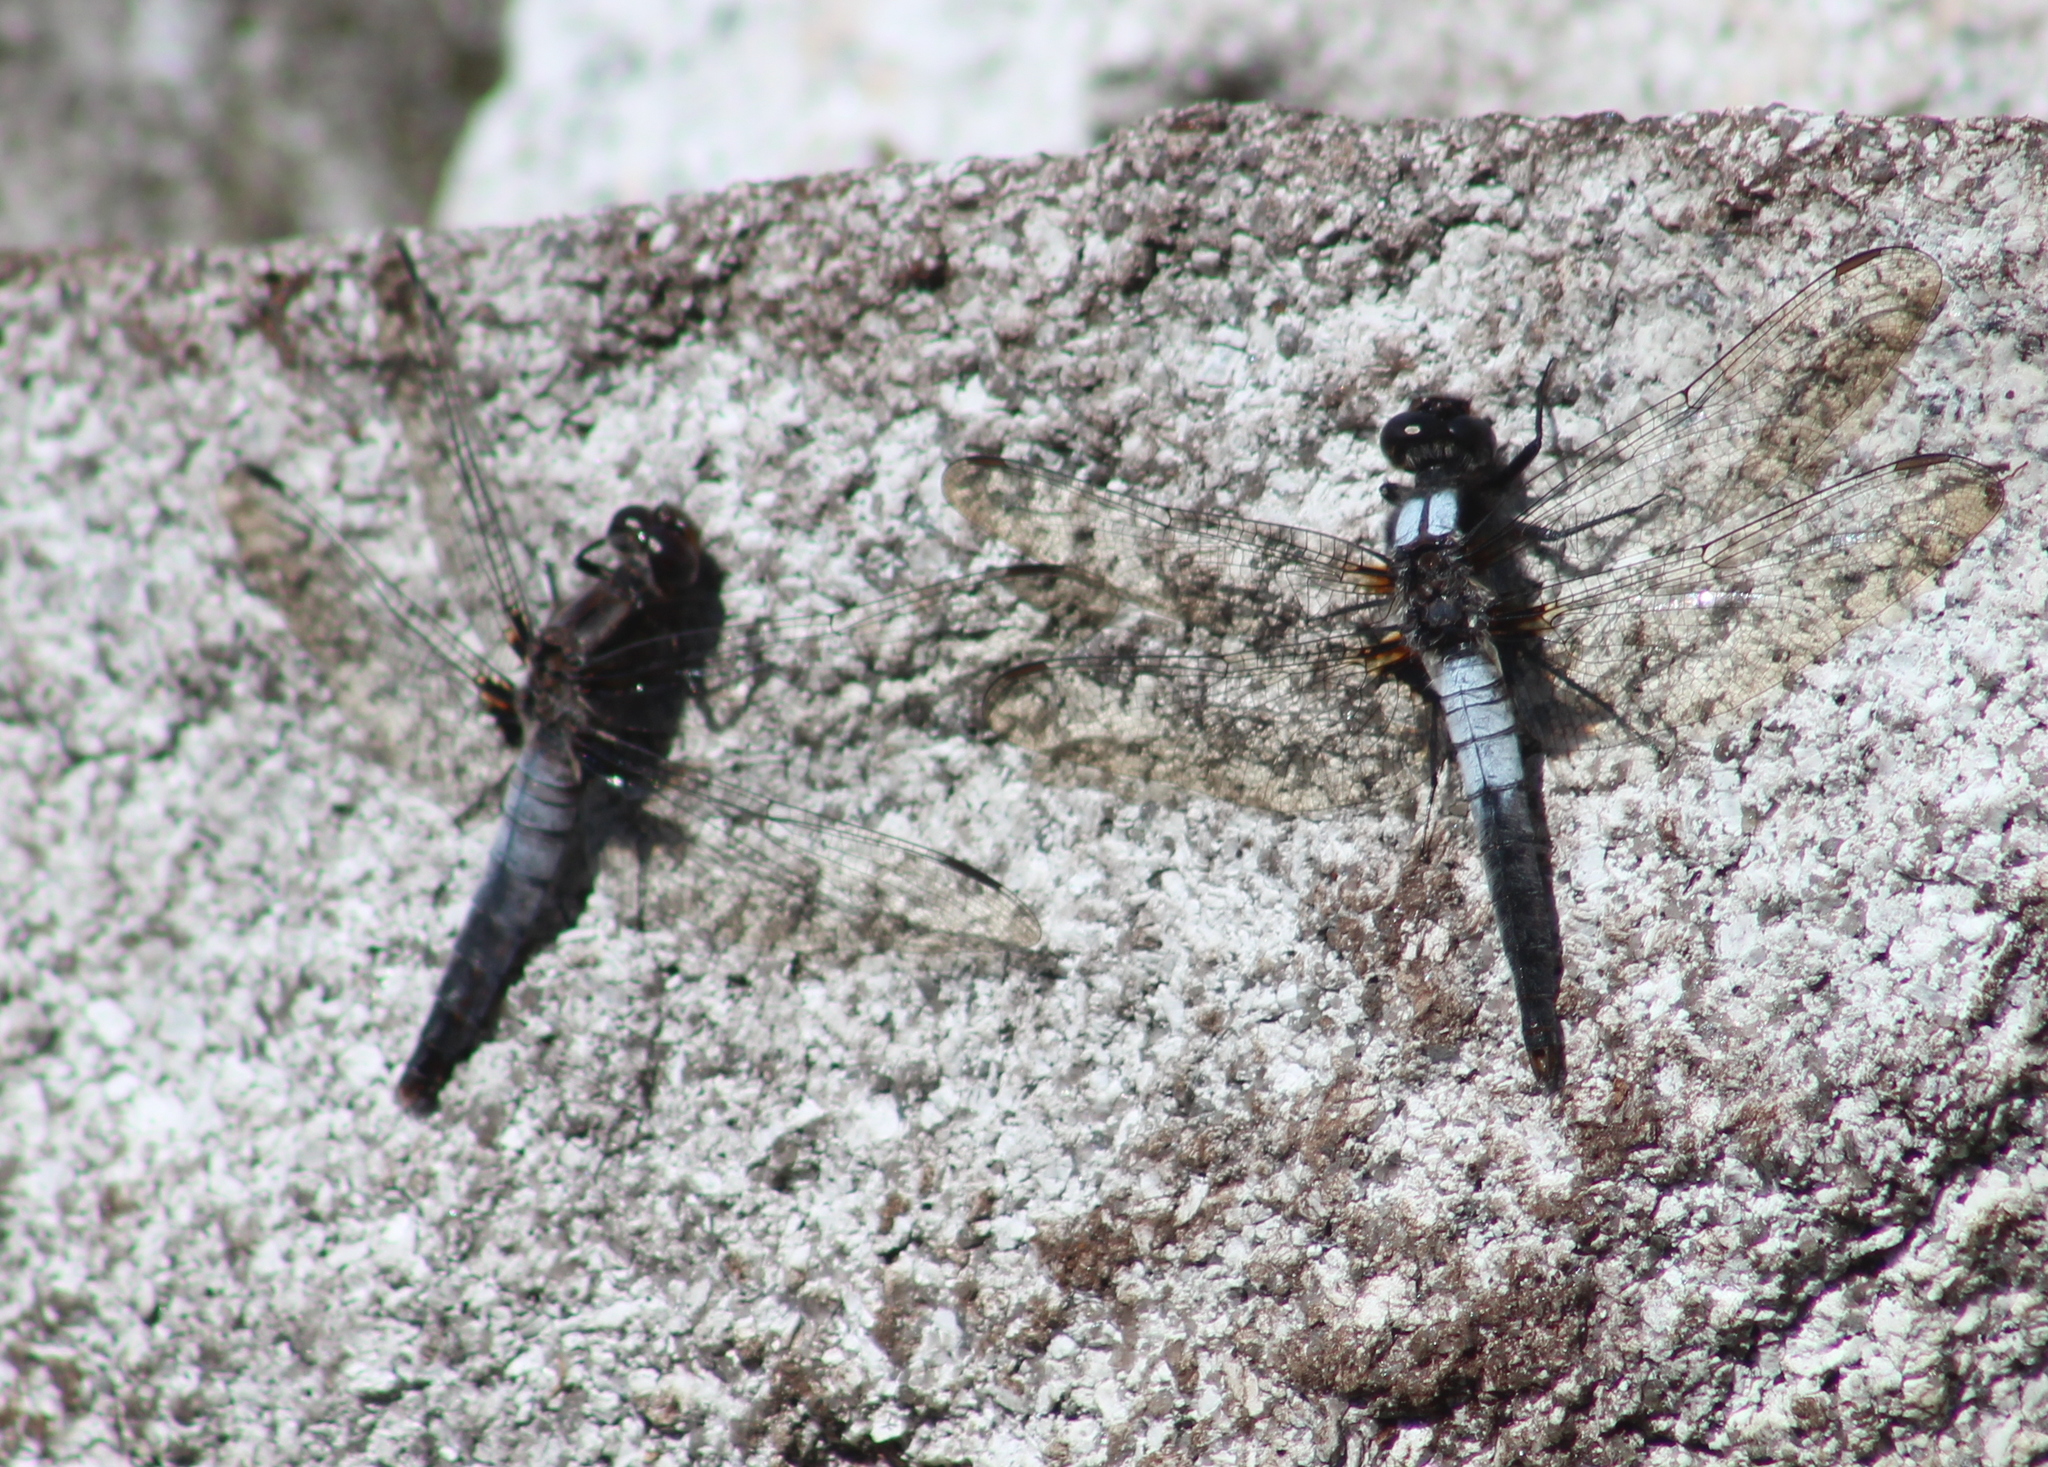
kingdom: Animalia
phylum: Arthropoda
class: Insecta
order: Odonata
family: Libellulidae
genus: Ladona
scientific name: Ladona julia
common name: Chalk-fronted corporal
